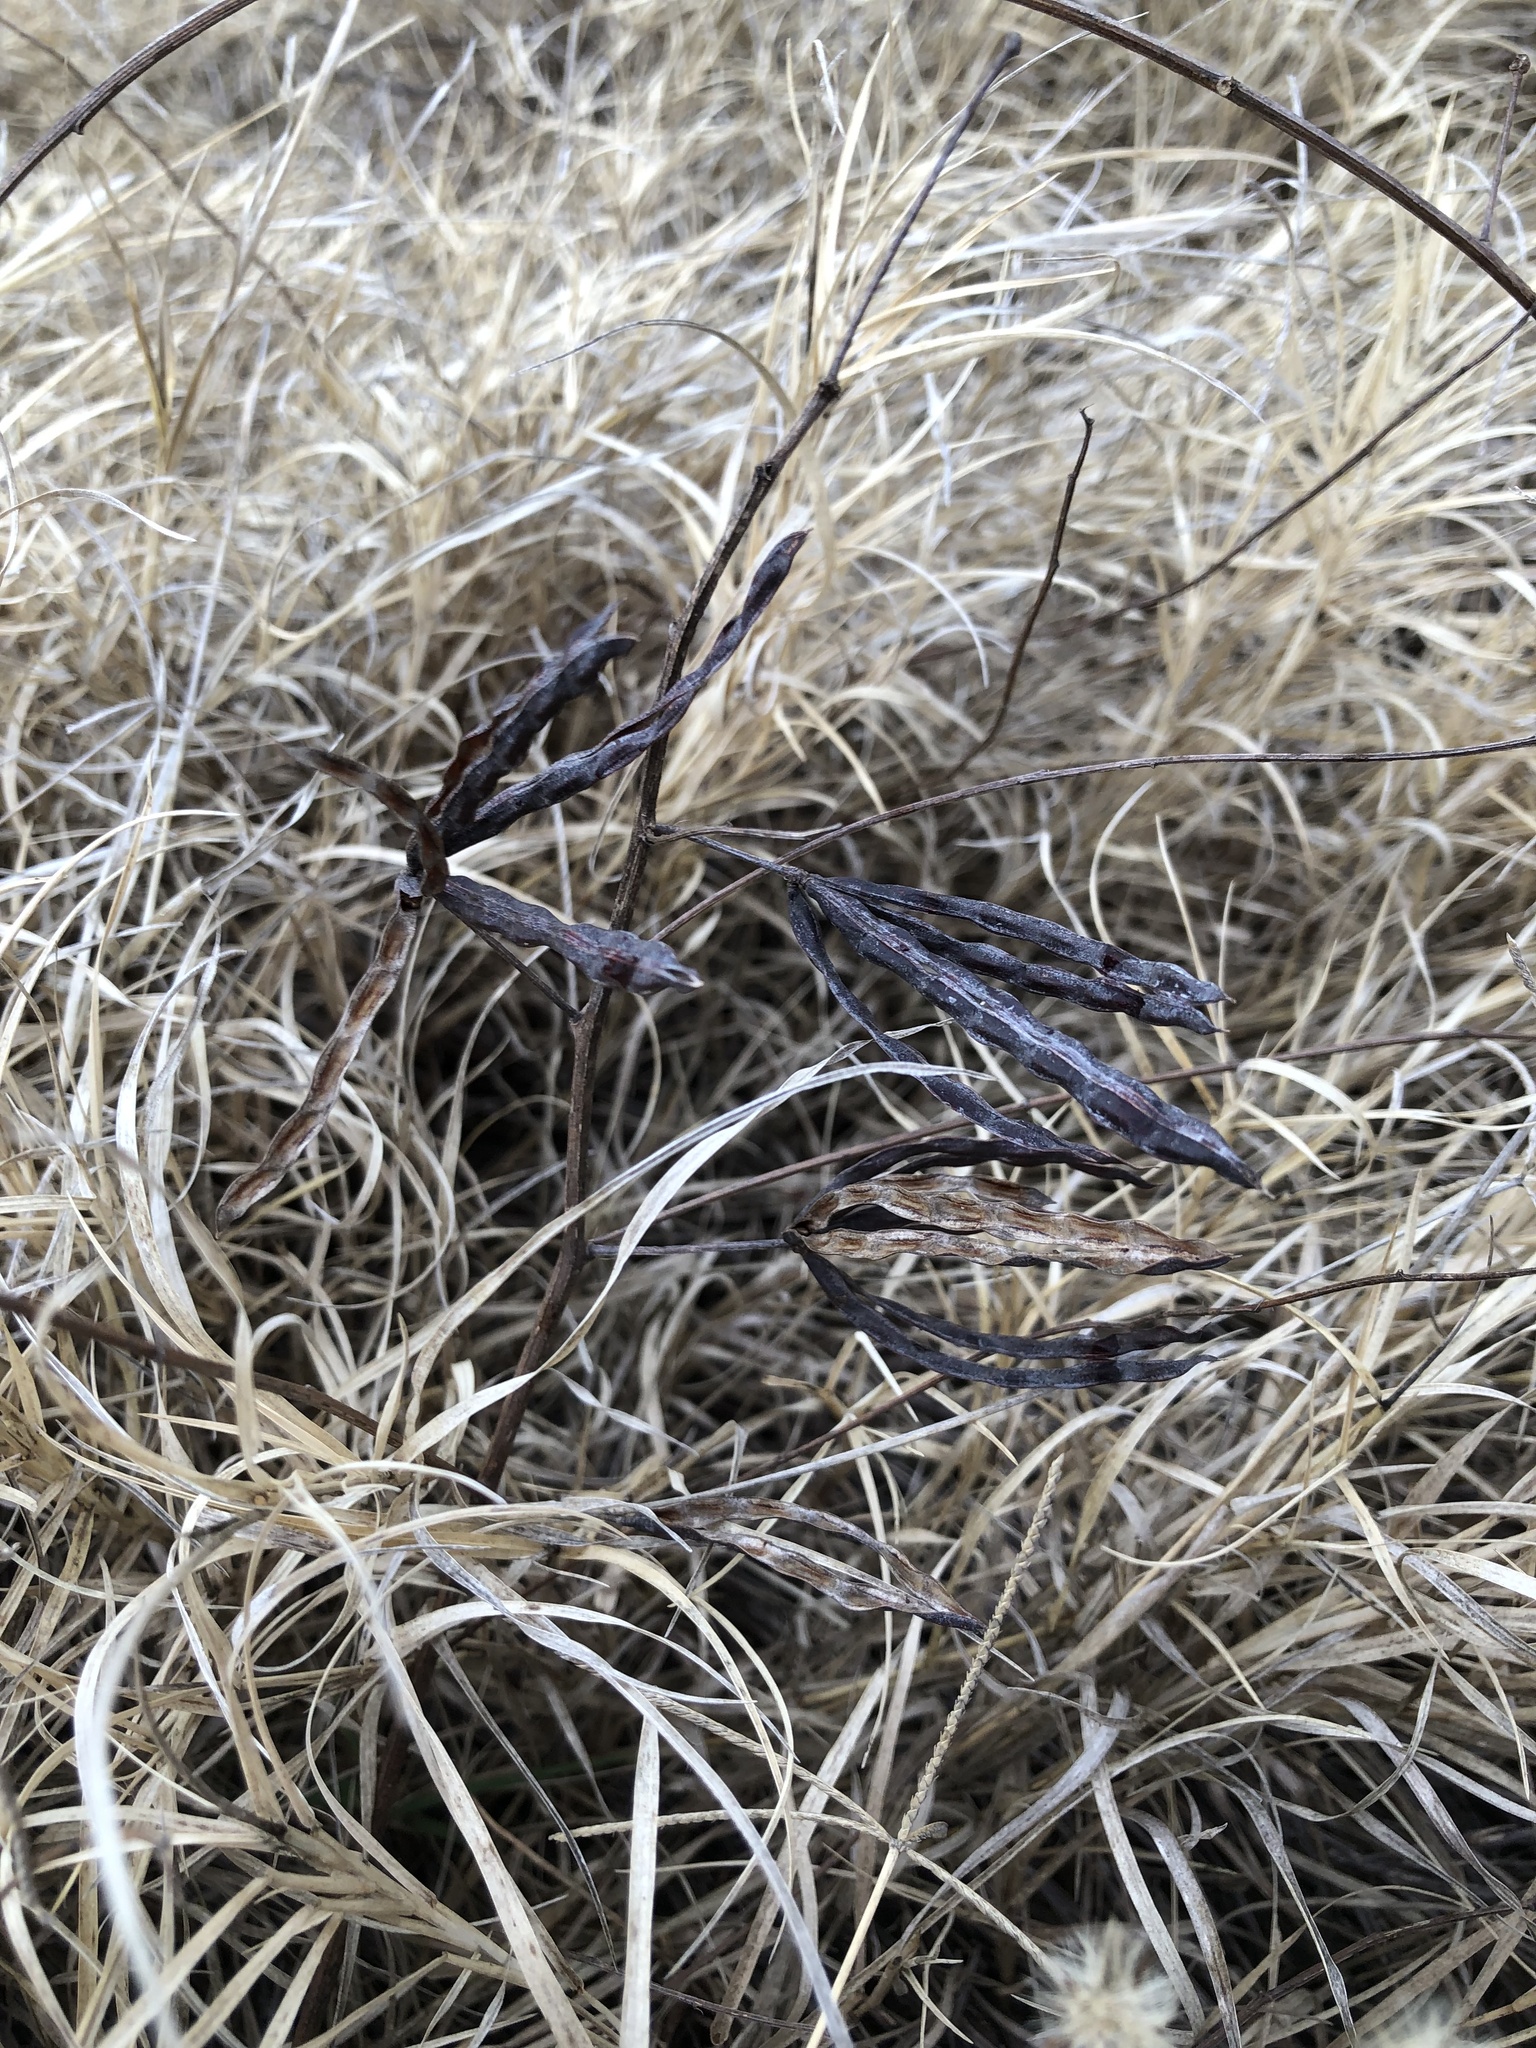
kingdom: Plantae
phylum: Tracheophyta
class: Magnoliopsida
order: Fabales
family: Fabaceae
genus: Desmanthus
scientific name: Desmanthus leptolobus
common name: Prairie-mimosa
